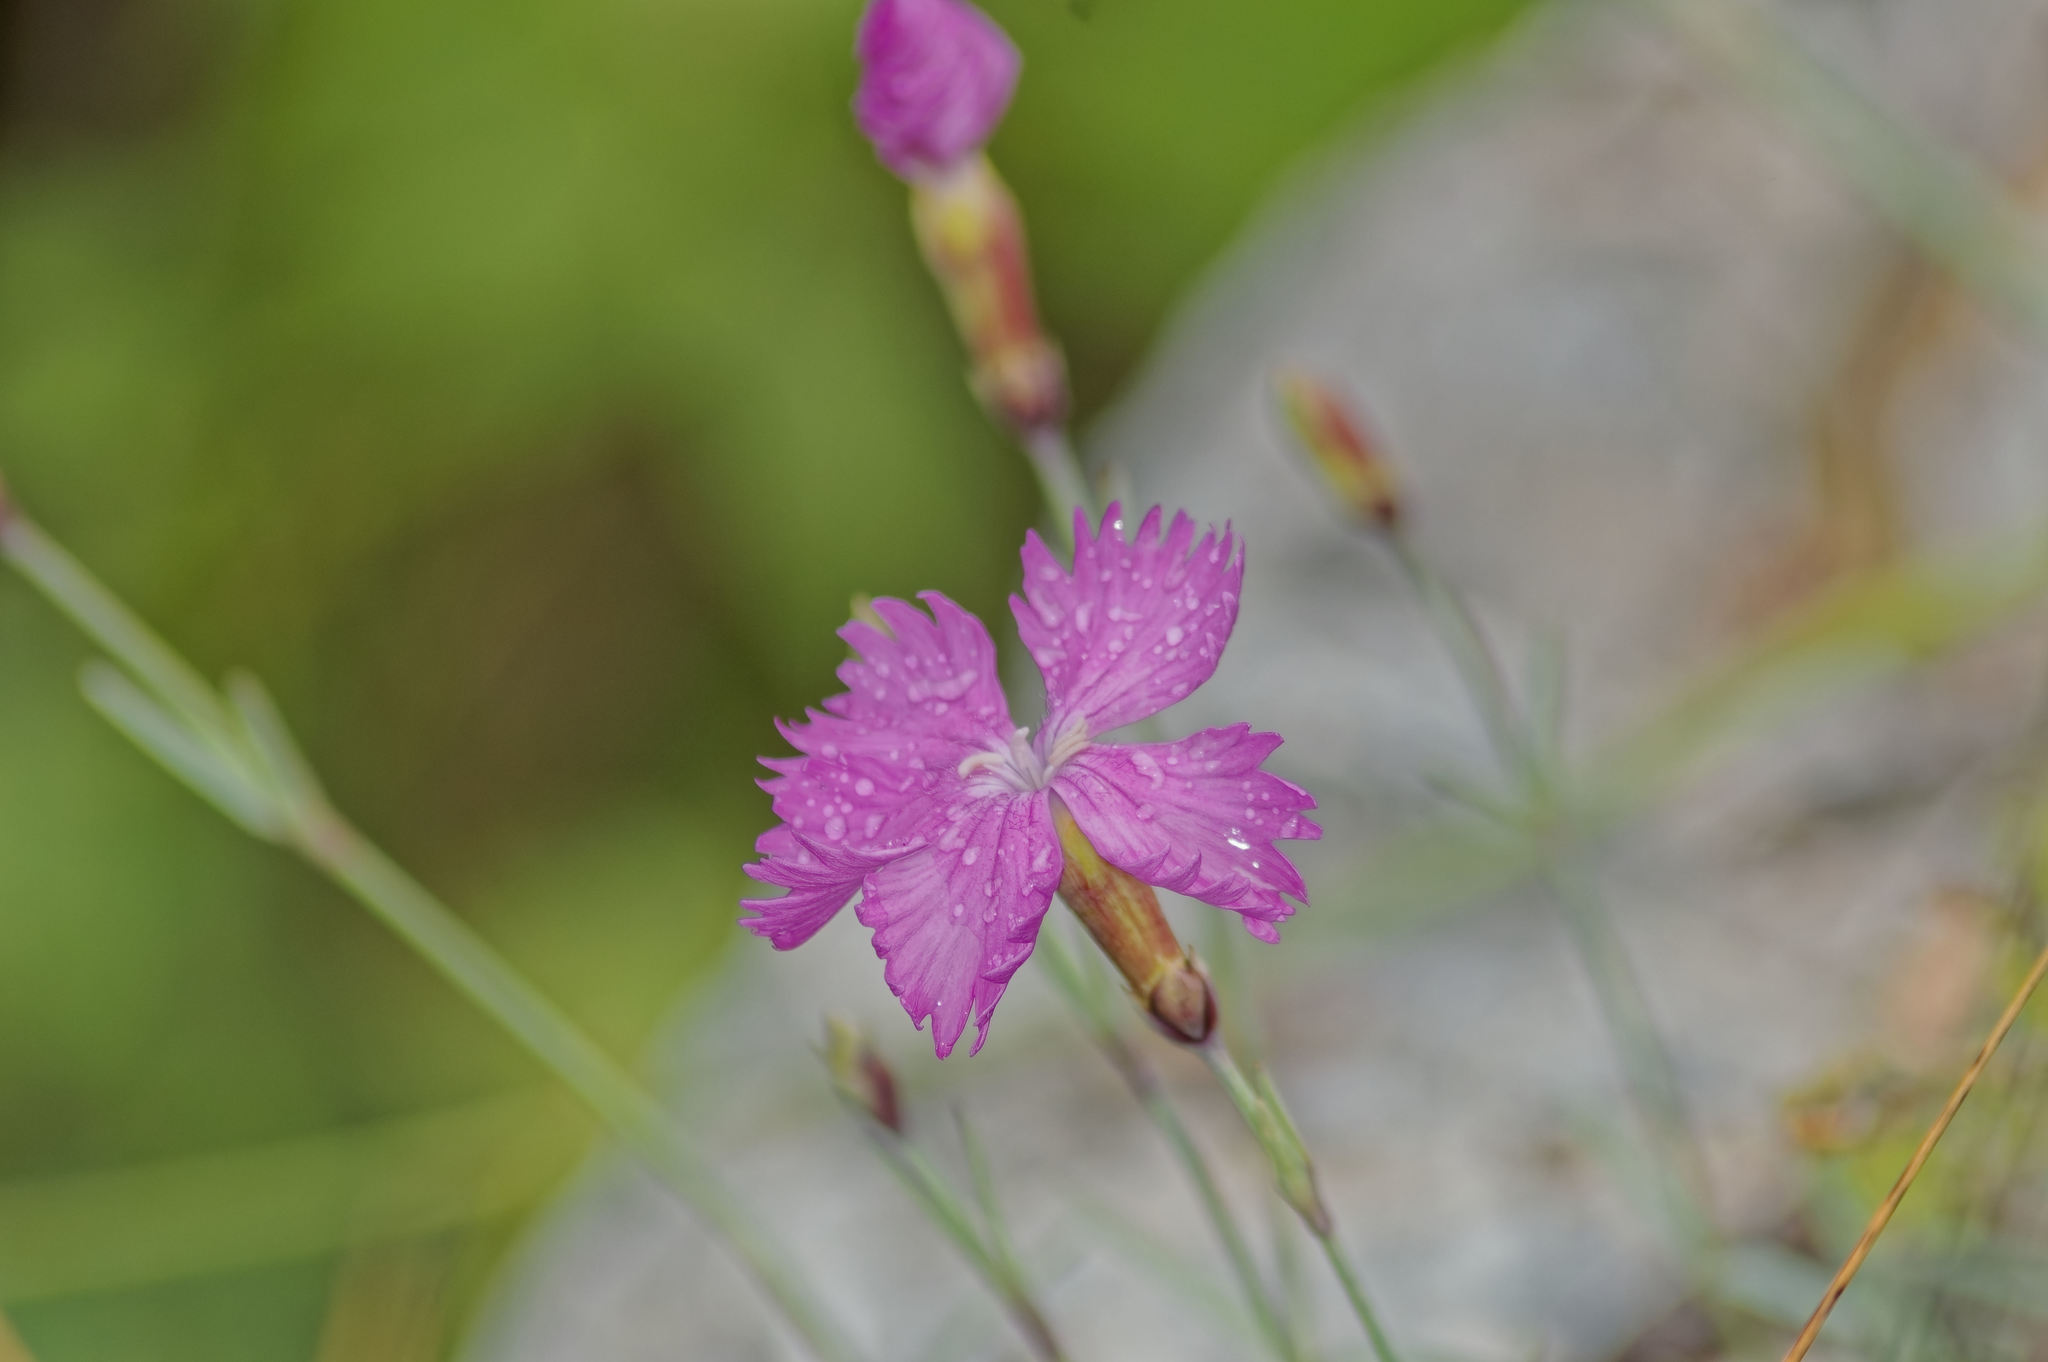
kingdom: Plantae
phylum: Tracheophyta
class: Magnoliopsida
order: Caryophyllales
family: Caryophyllaceae
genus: Dianthus
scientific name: Dianthus gratianopolitanus
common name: Cheddar pink
